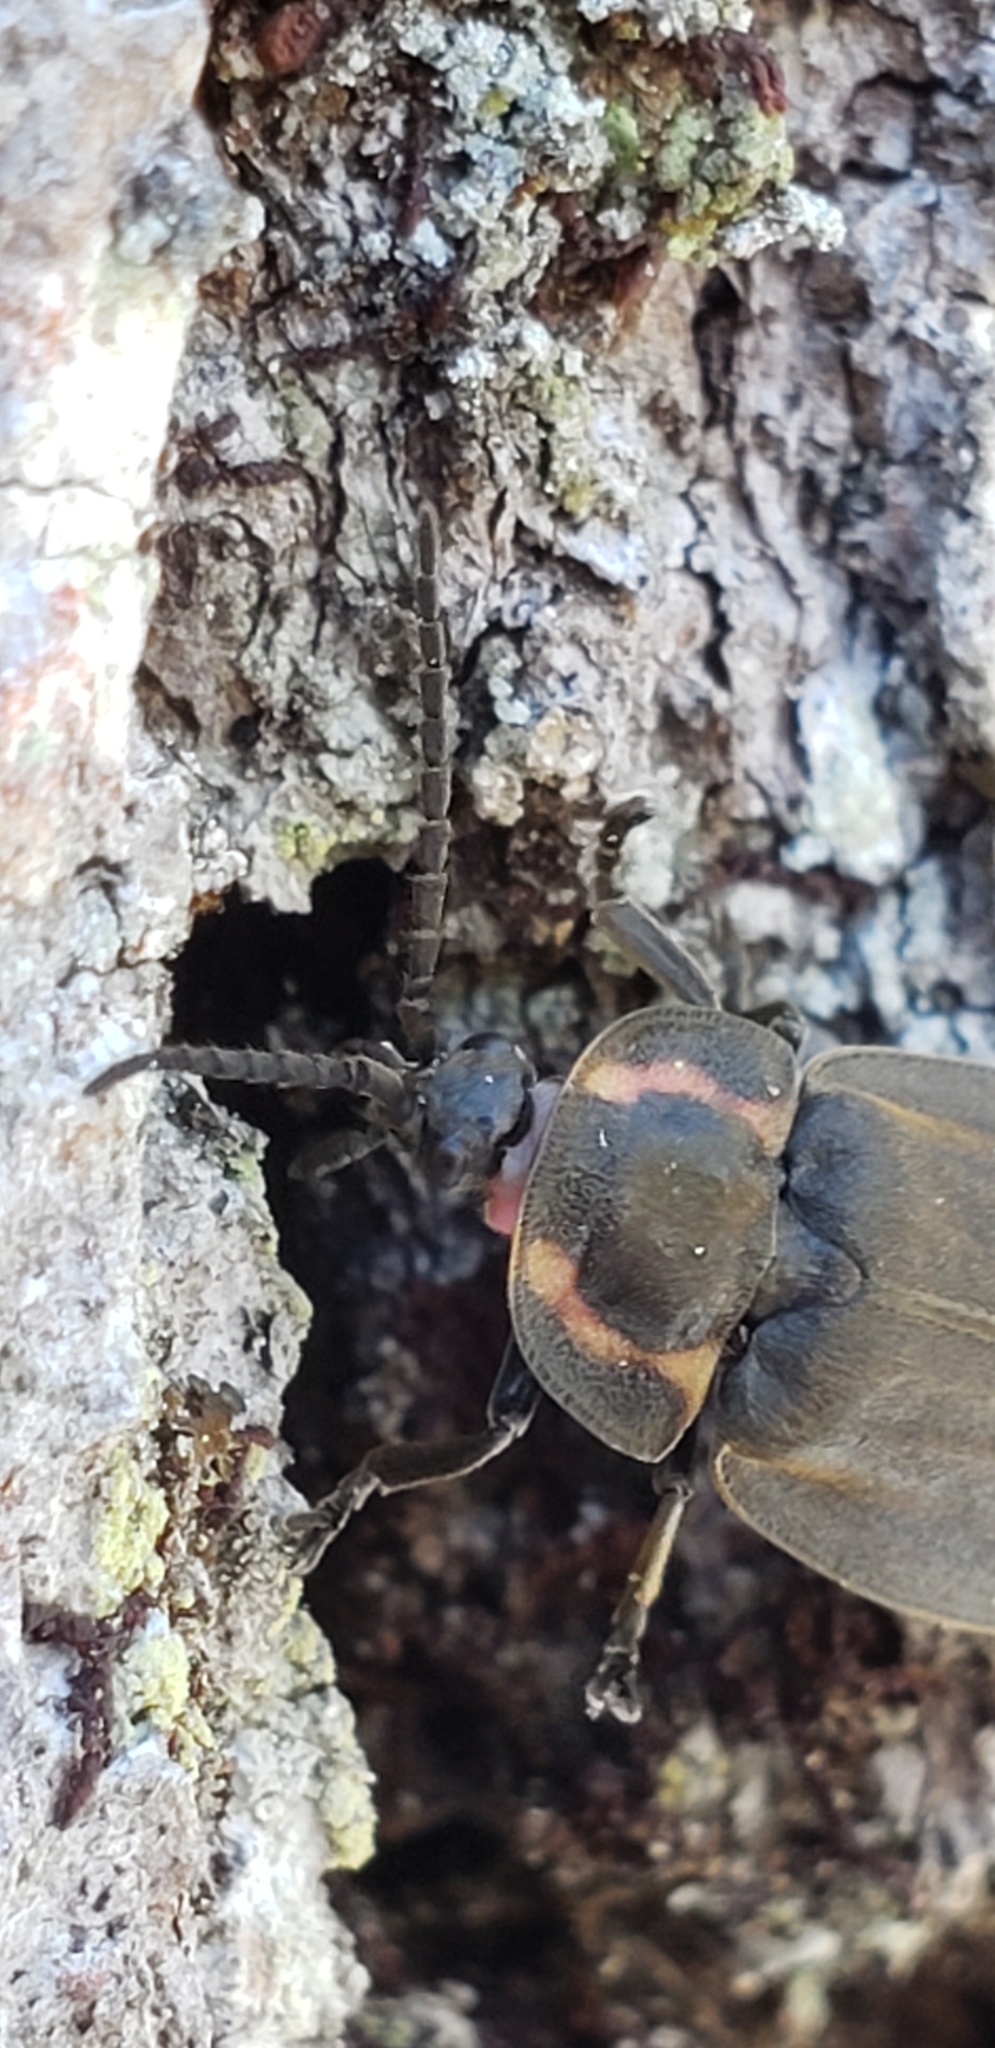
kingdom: Animalia
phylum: Arthropoda
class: Insecta
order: Coleoptera
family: Lampyridae
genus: Photinus
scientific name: Photinus corrusca
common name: Winter firefly
